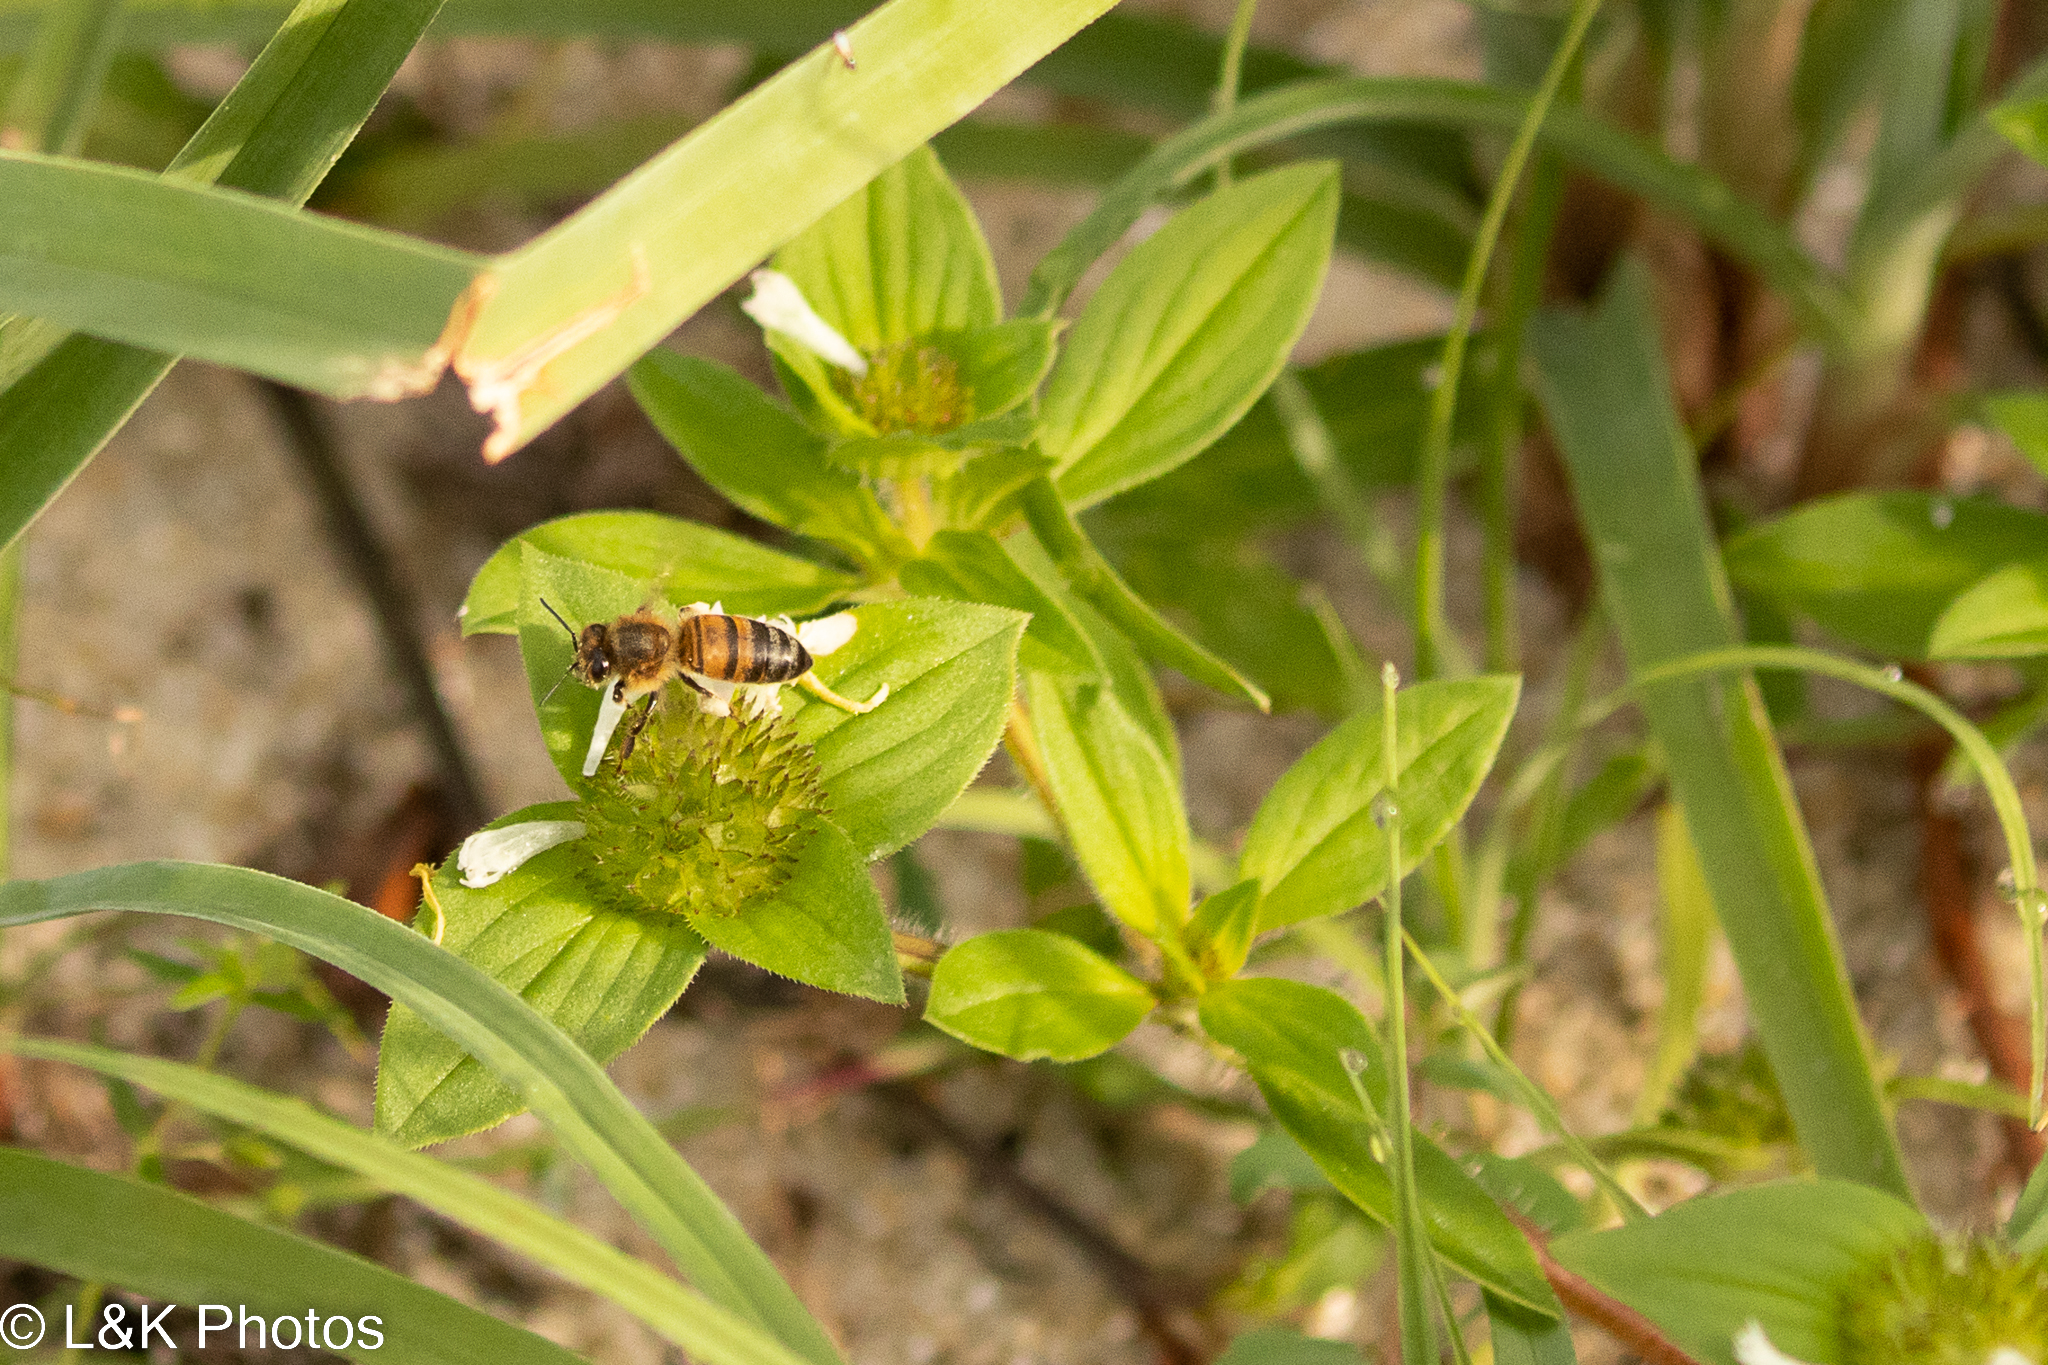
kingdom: Animalia
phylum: Arthropoda
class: Insecta
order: Hymenoptera
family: Apidae
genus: Apis
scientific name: Apis mellifera
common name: Honey bee
